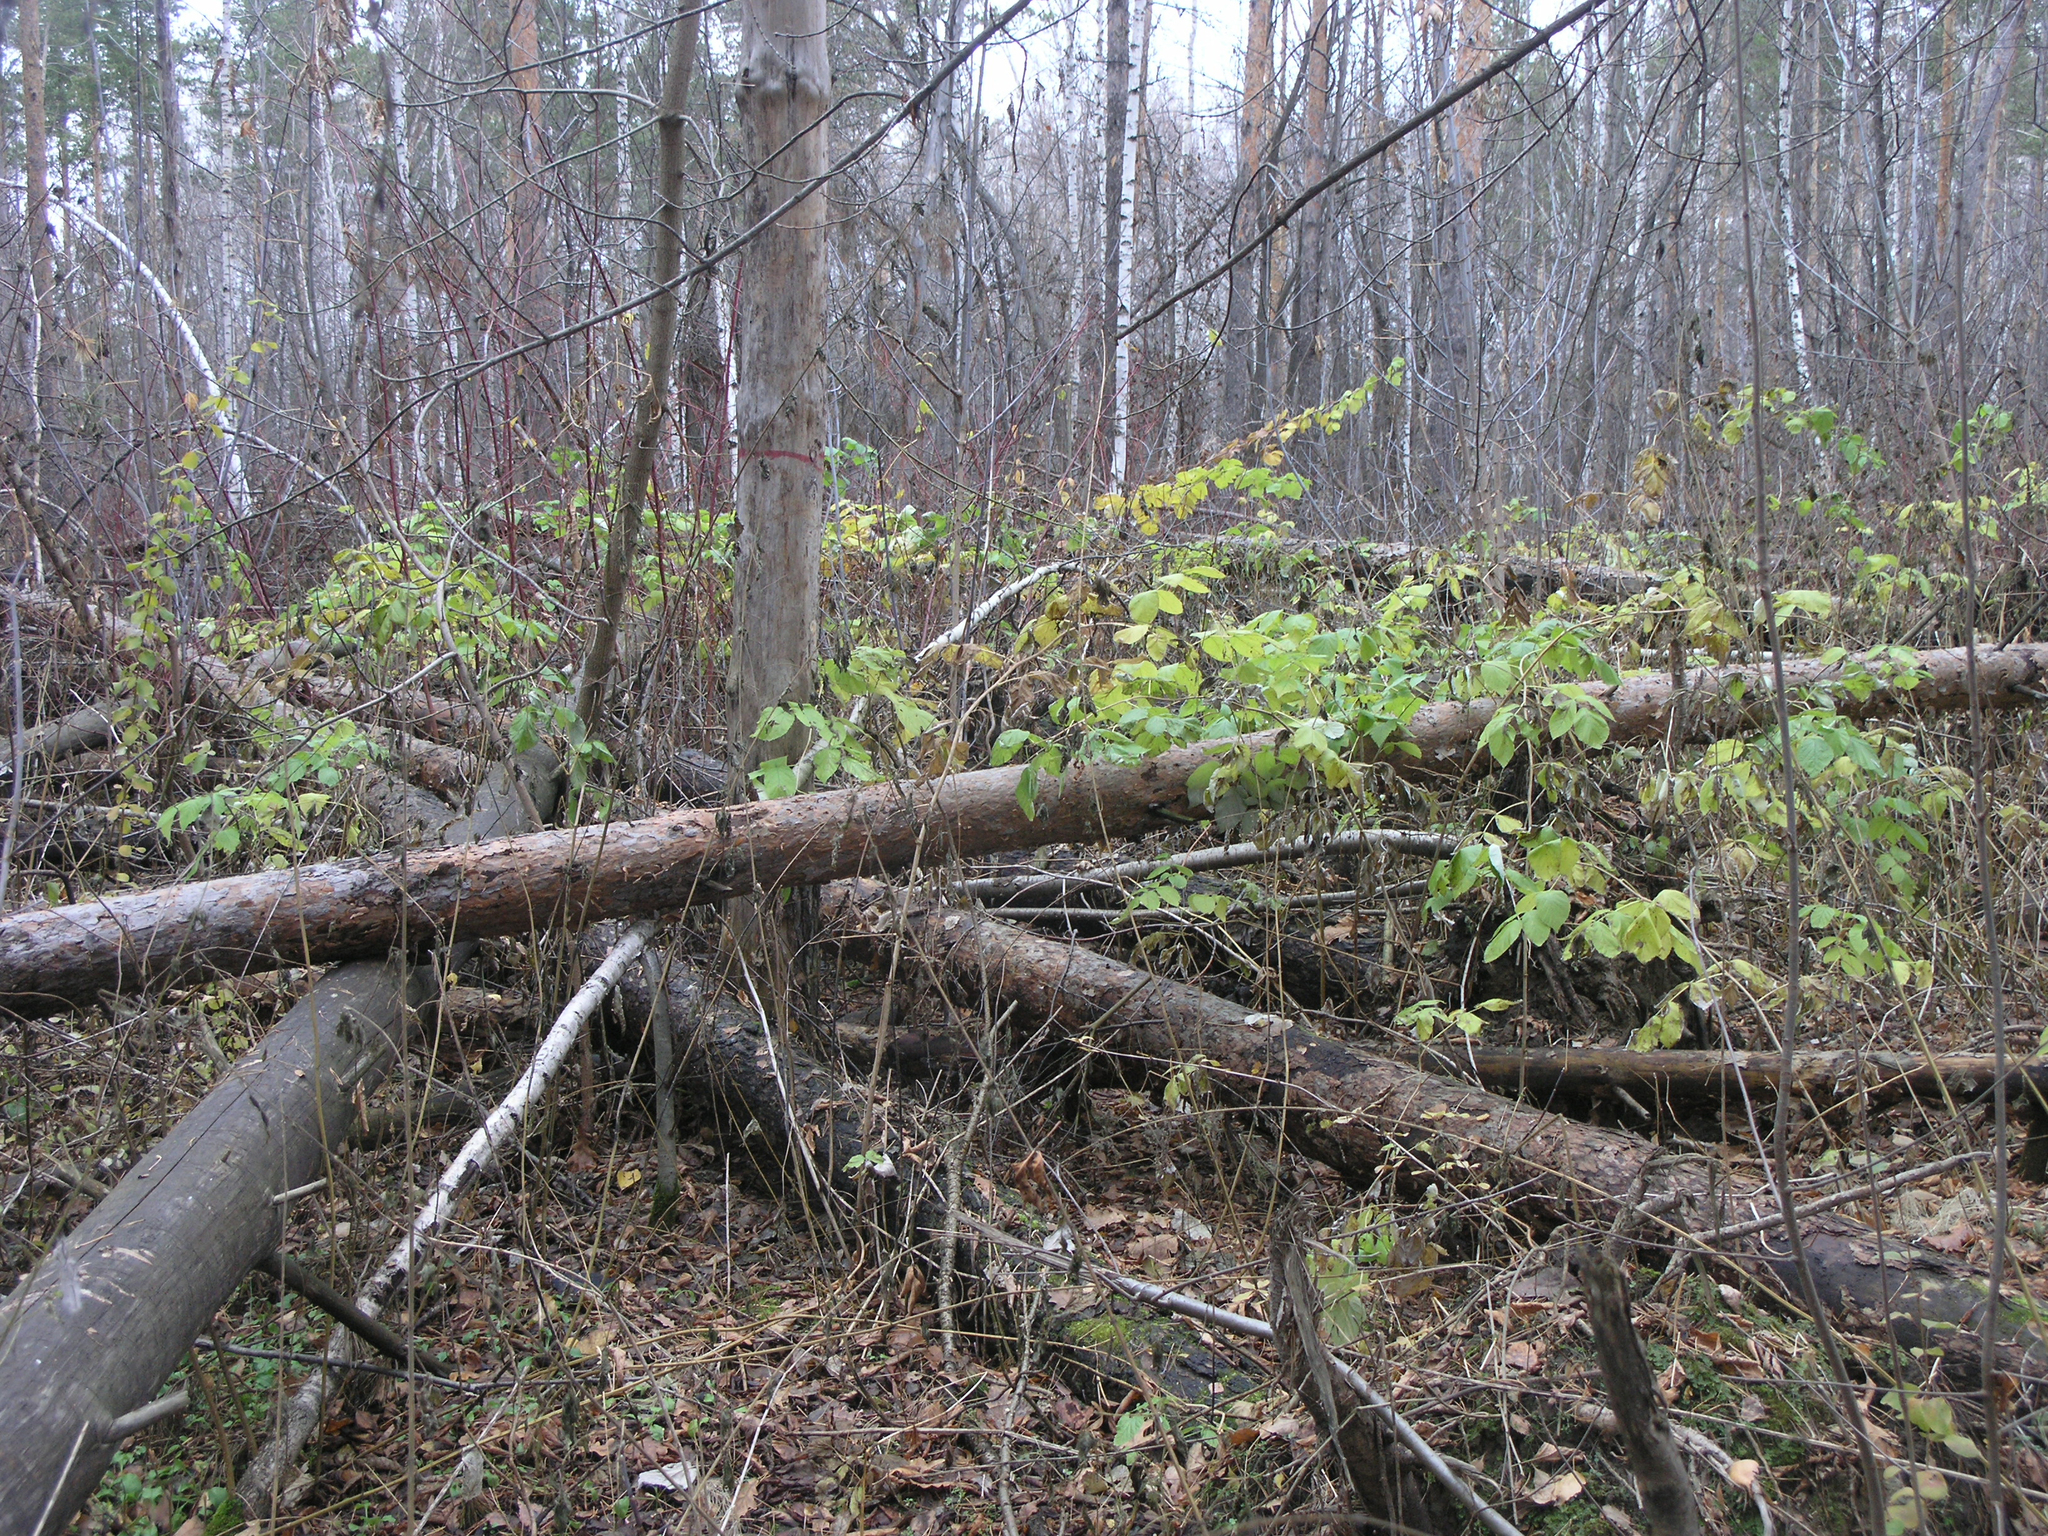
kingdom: Plantae
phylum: Tracheophyta
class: Magnoliopsida
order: Rosales
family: Rosaceae
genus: Rubus
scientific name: Rubus idaeus
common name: Raspberry
